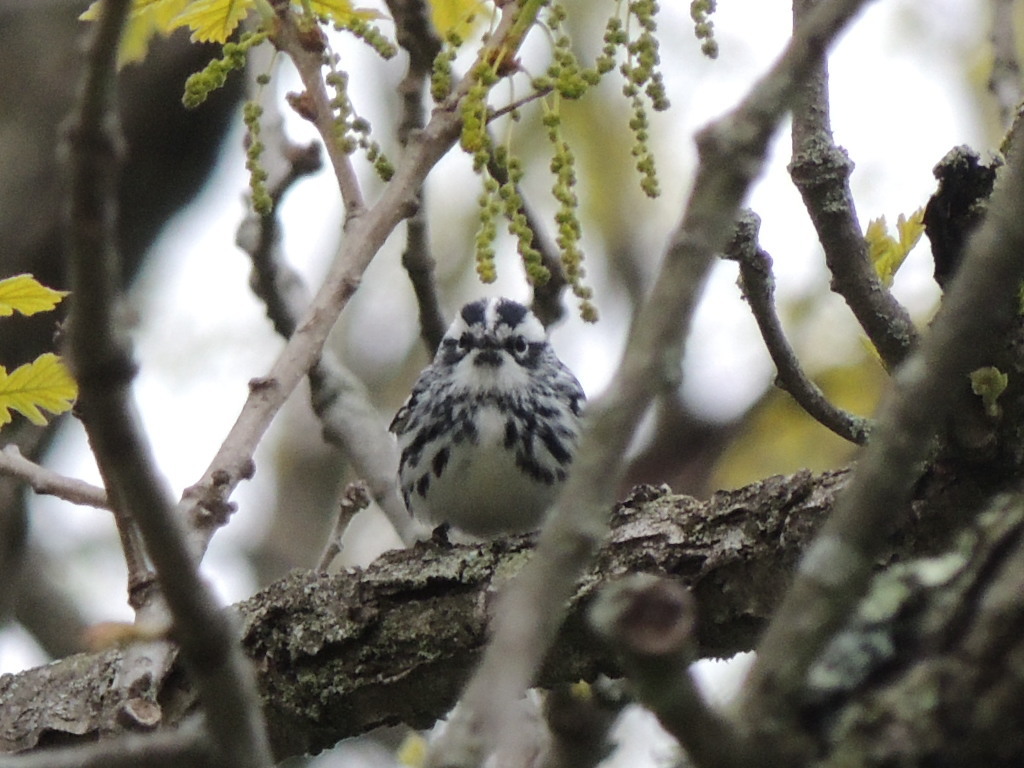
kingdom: Animalia
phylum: Chordata
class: Aves
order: Passeriformes
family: Parulidae
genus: Mniotilta
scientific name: Mniotilta varia
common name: Black-and-white warbler
